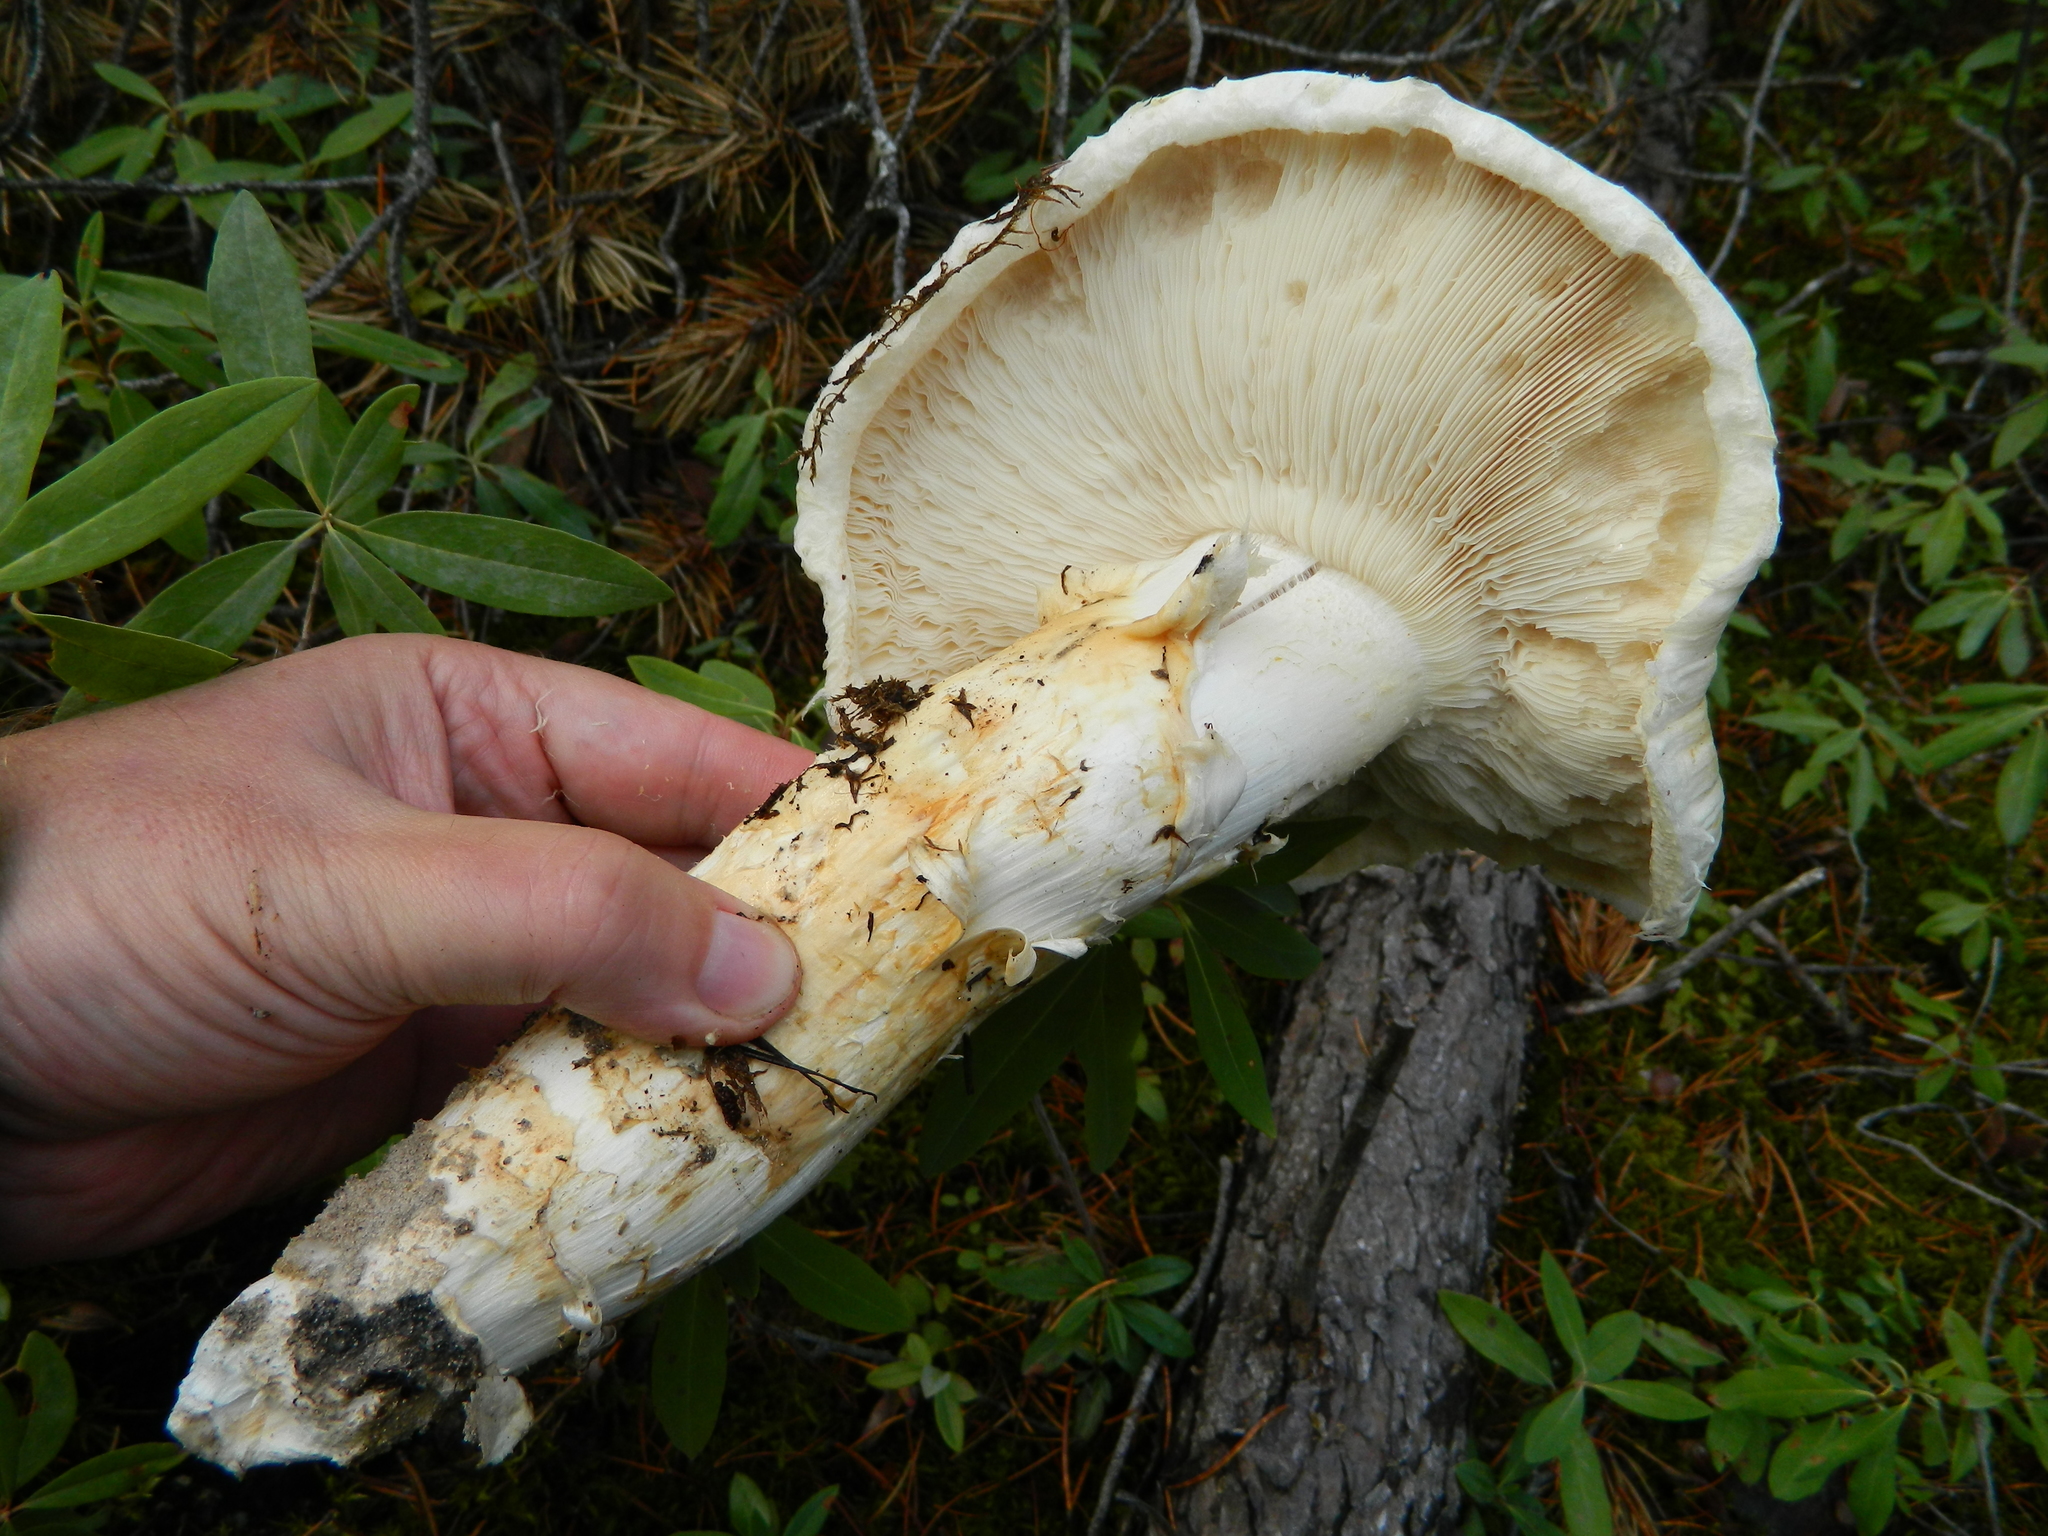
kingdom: Fungi
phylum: Basidiomycota
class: Agaricomycetes
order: Agaricales
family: Tricholomataceae
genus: Tricholoma
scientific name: Tricholoma magnivelare
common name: American matsutake
